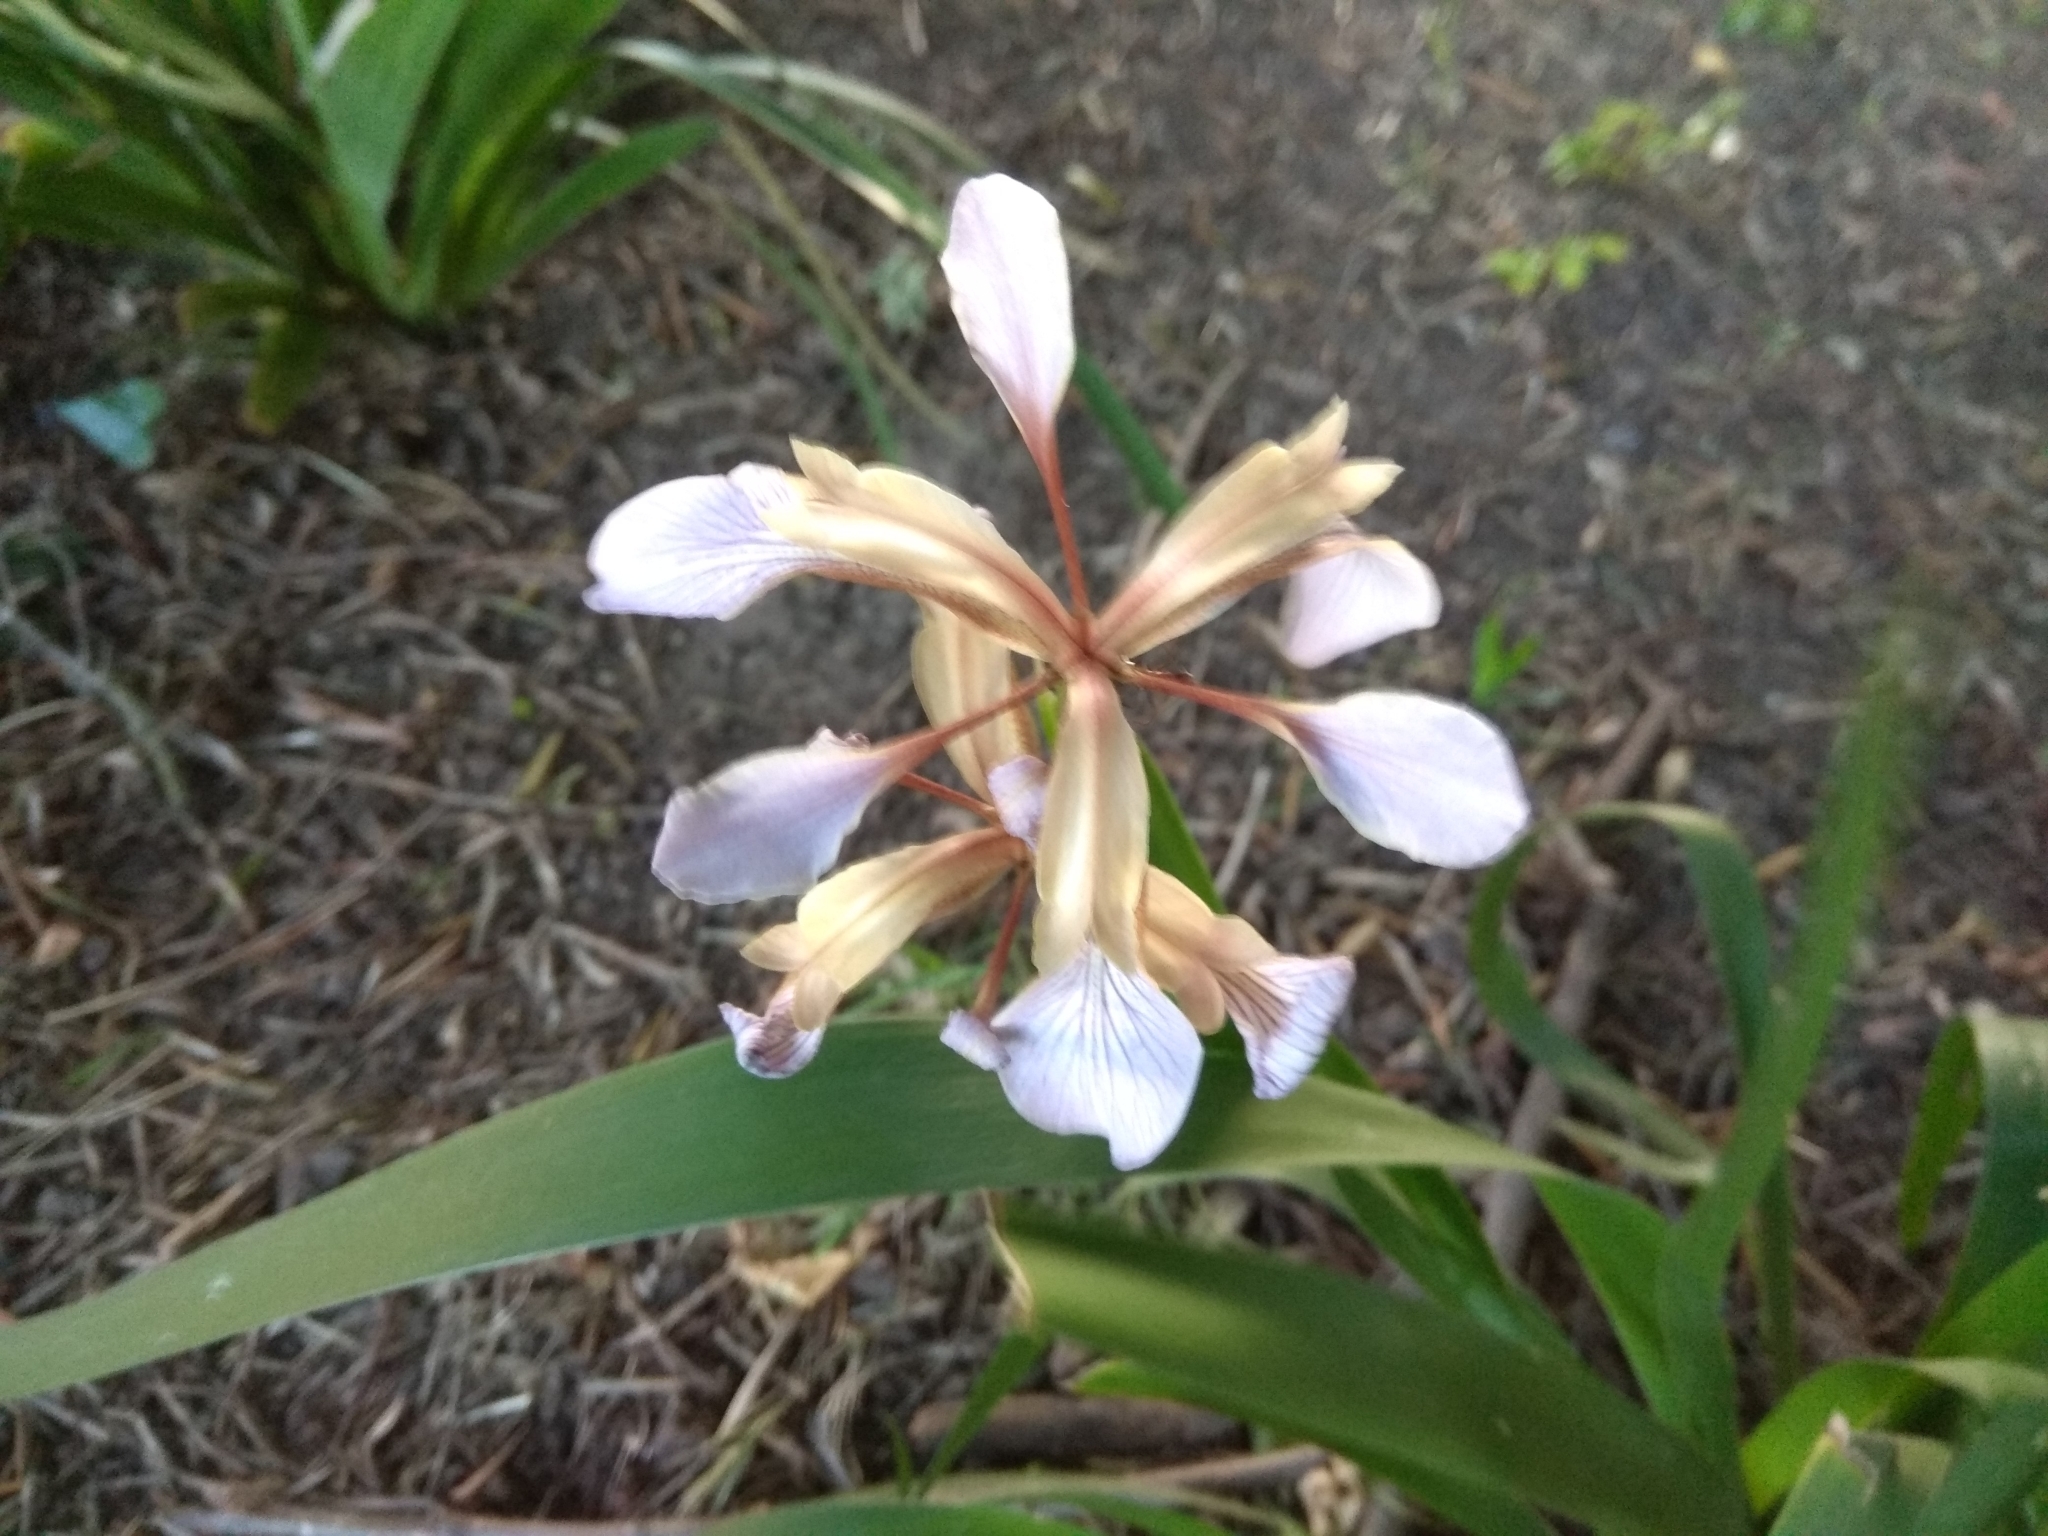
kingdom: Plantae
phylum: Tracheophyta
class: Liliopsida
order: Asparagales
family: Iridaceae
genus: Iris
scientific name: Iris foetidissima
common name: Stinking iris
